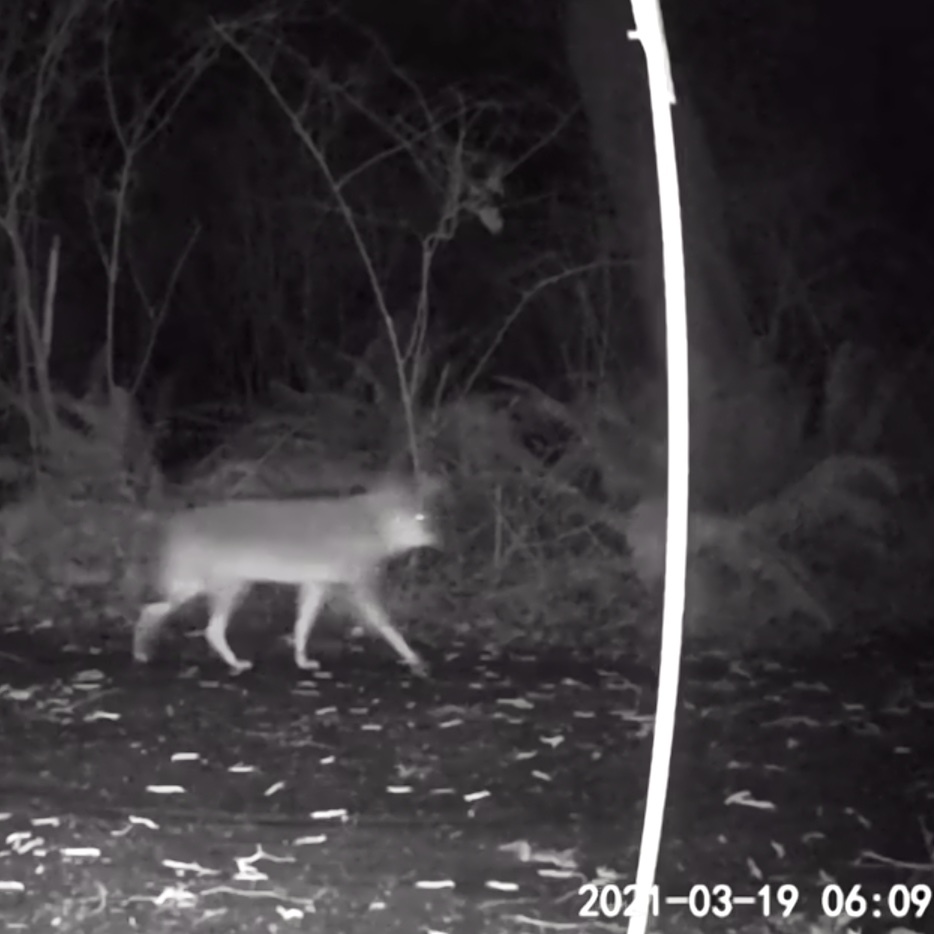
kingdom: Animalia
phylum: Chordata
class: Mammalia
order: Carnivora
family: Canidae
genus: Canis
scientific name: Canis latrans
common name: Coyote
